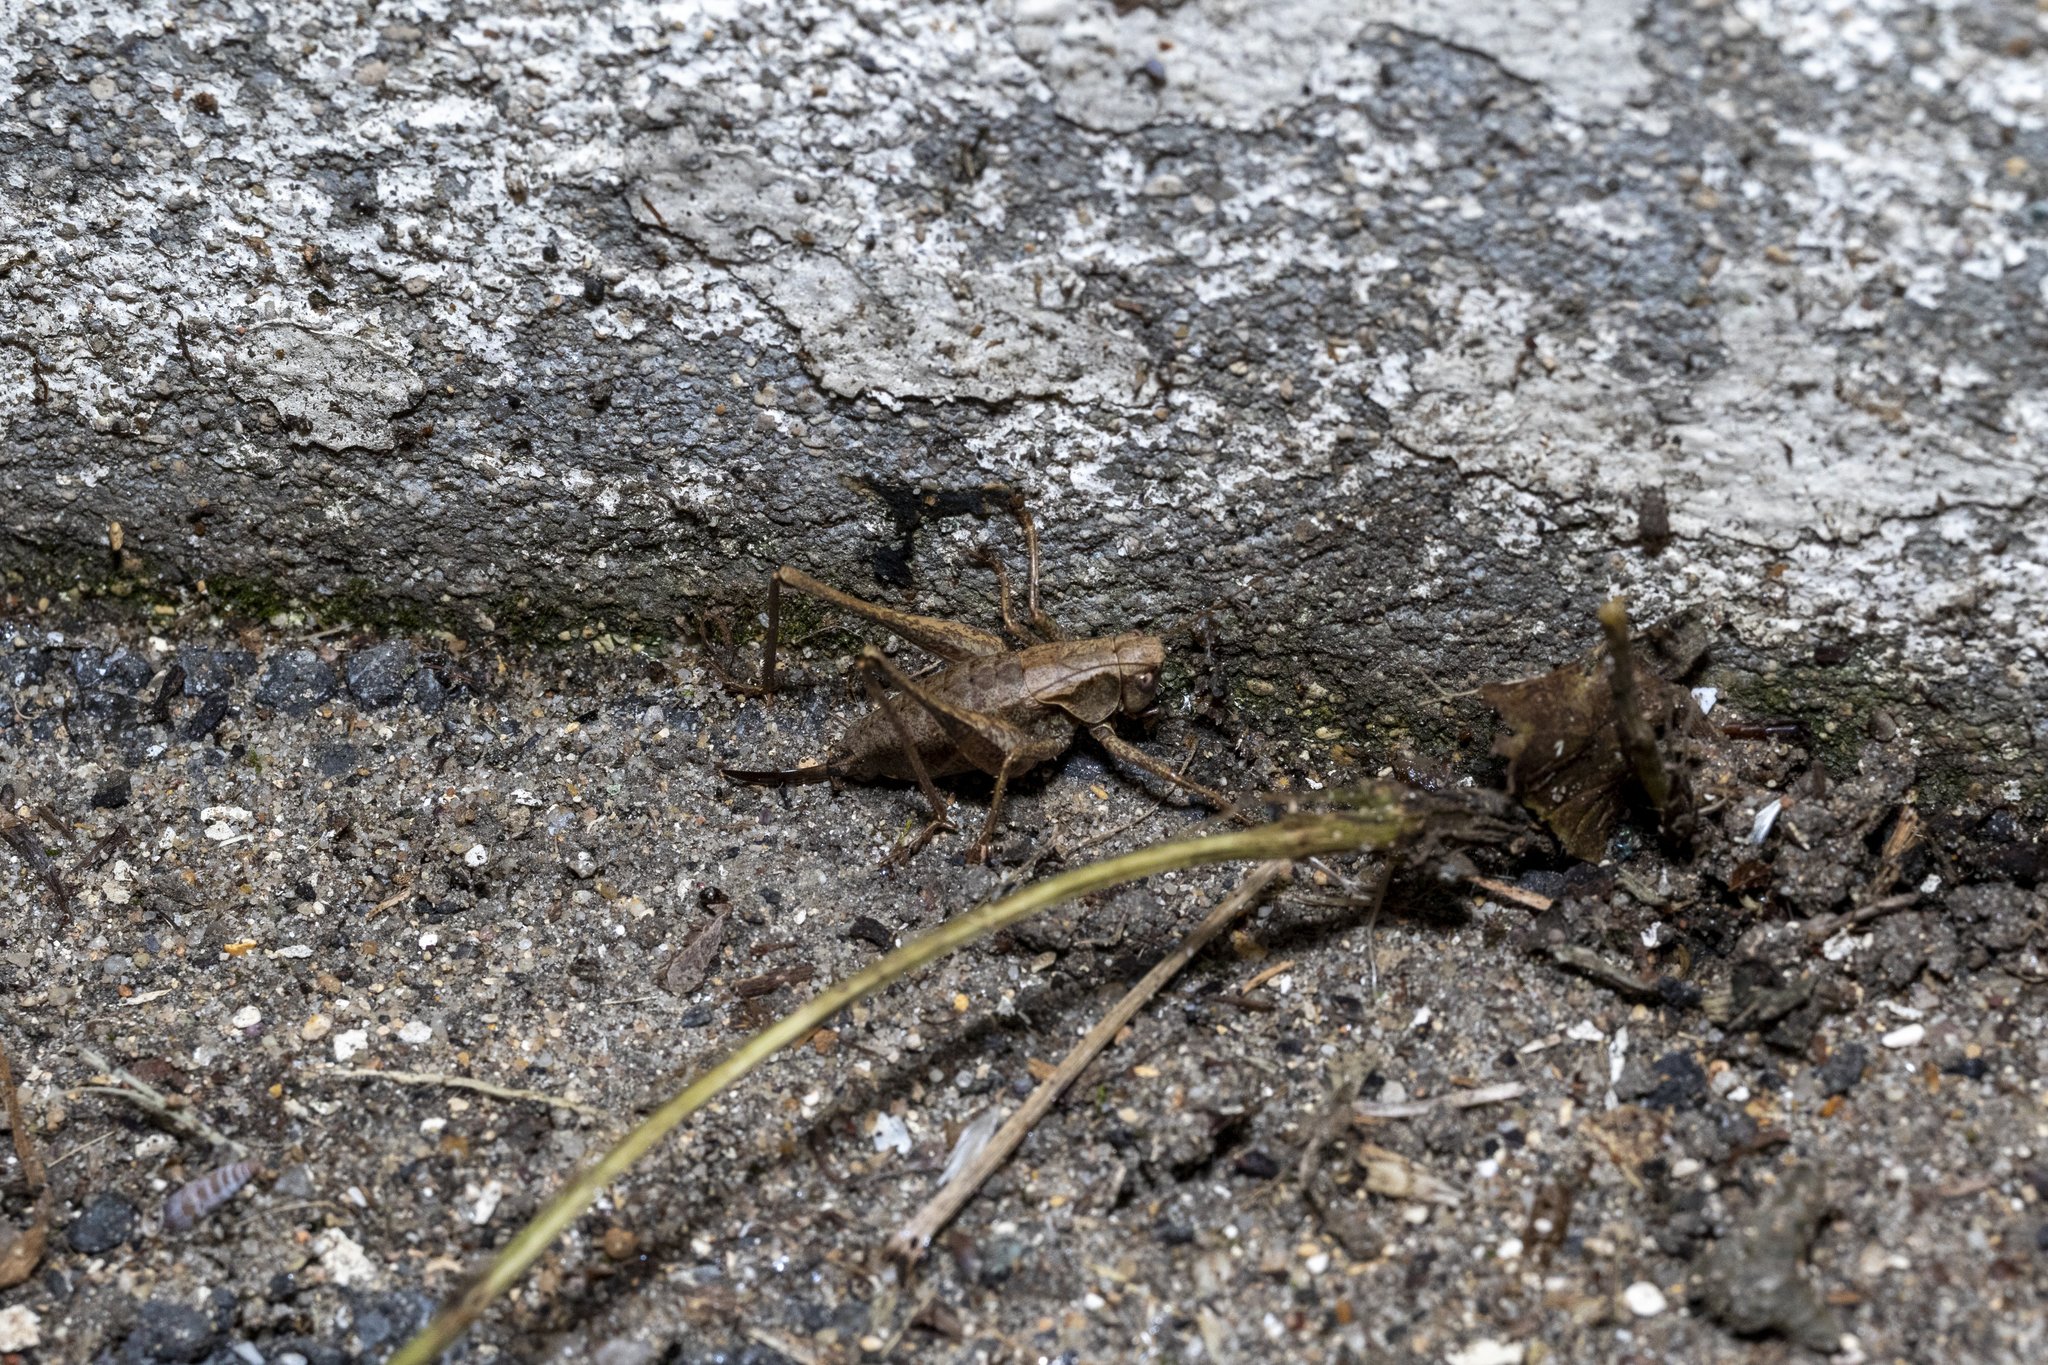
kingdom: Animalia
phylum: Arthropoda
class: Insecta
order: Orthoptera
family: Tettigoniidae
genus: Pholidoptera
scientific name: Pholidoptera griseoaptera
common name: Dark bush-cricket
